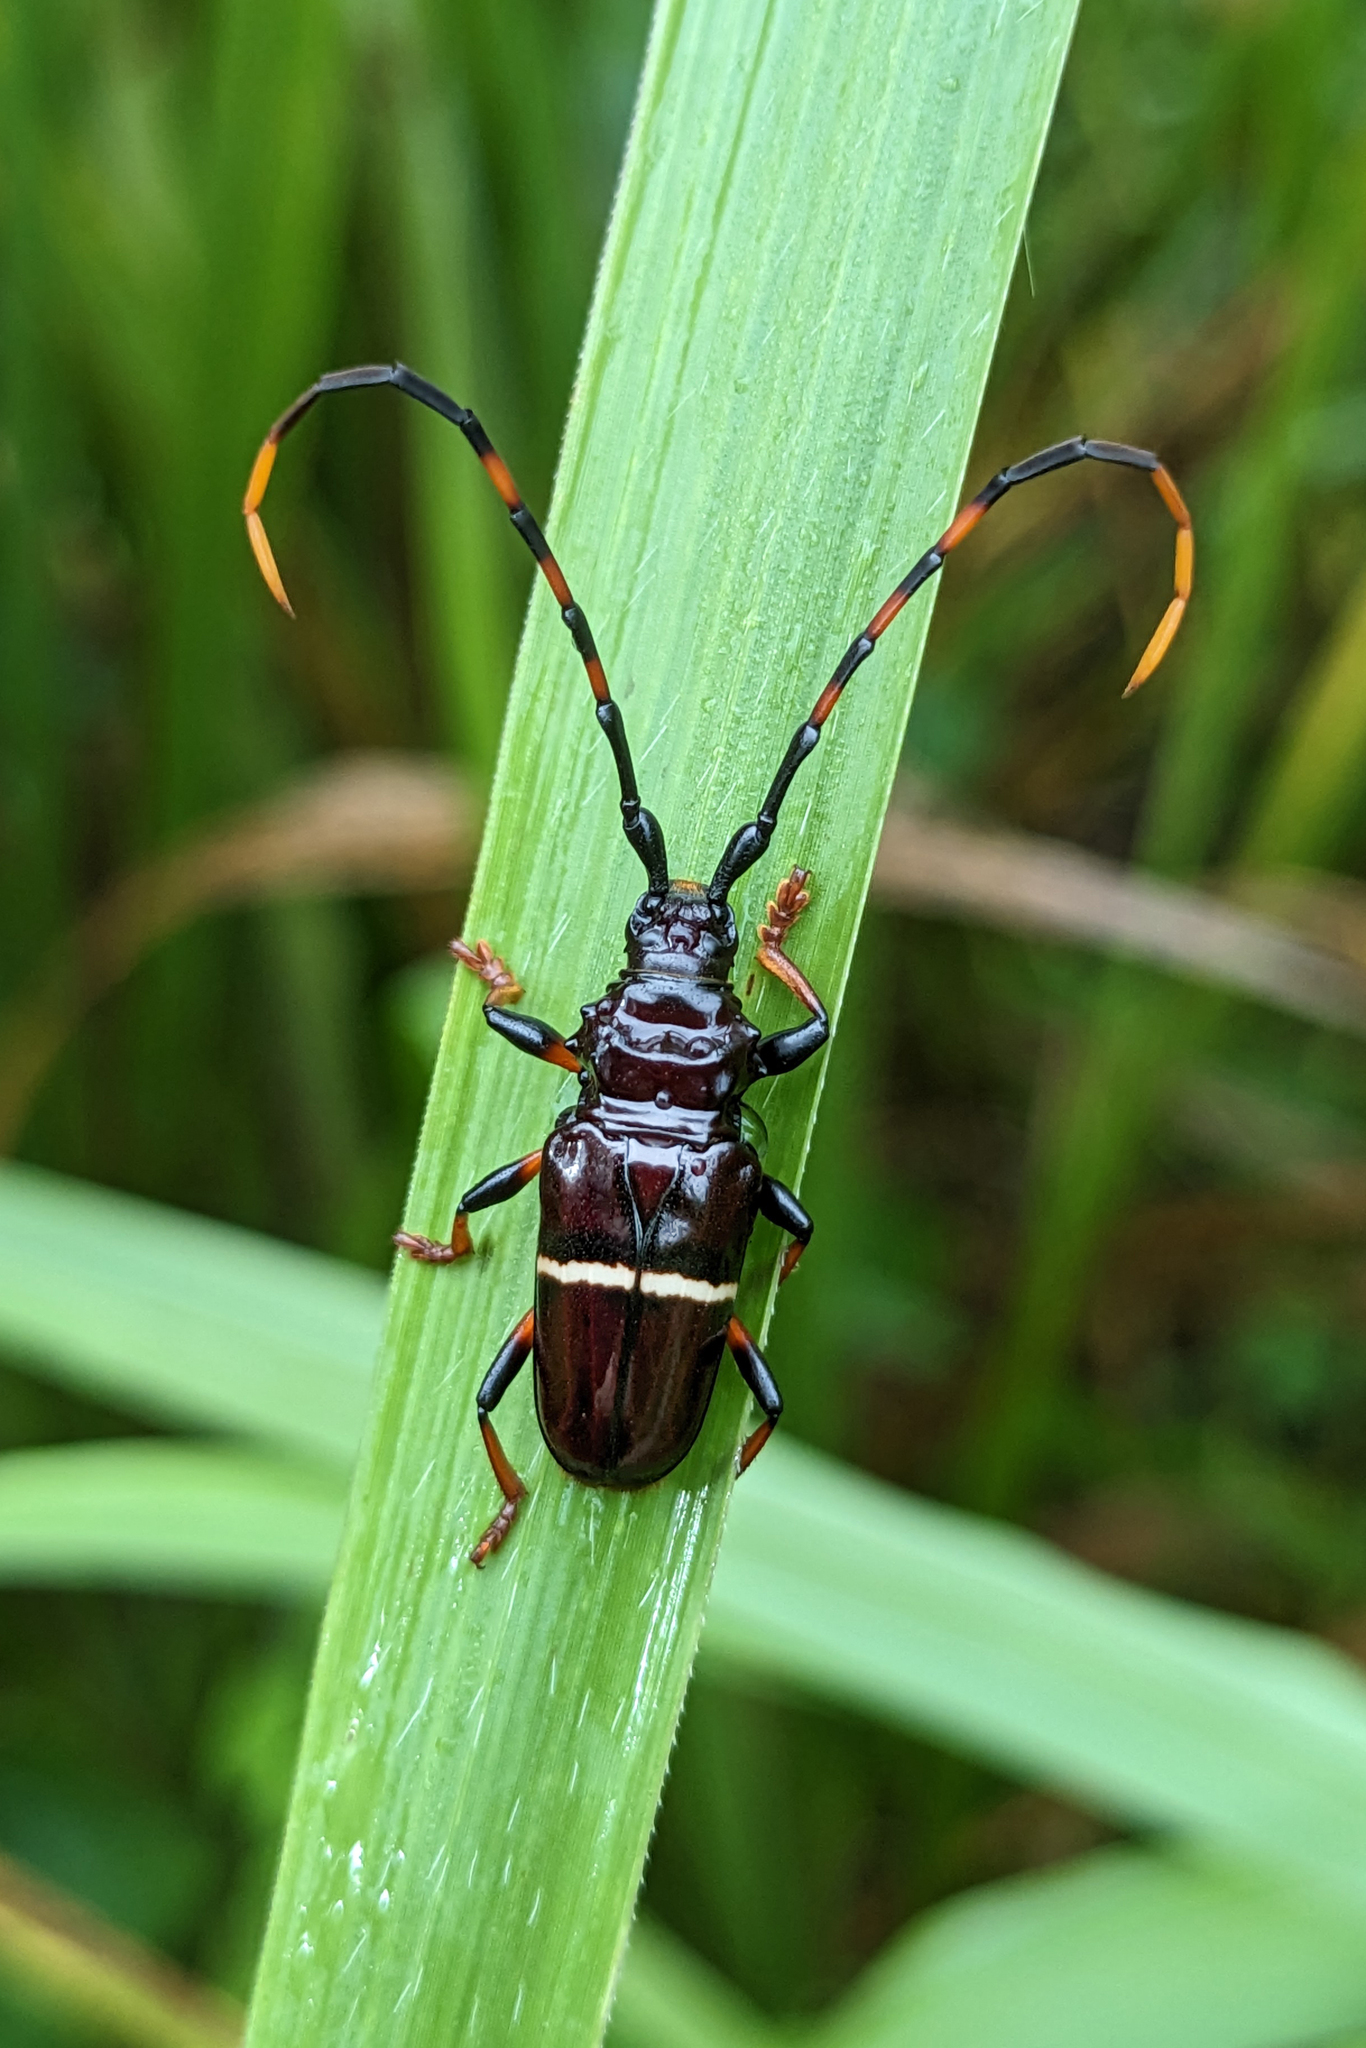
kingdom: Animalia
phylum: Arthropoda
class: Insecta
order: Coleoptera
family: Cerambycidae
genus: Trachyderes
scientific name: Trachyderes succinctus
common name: Mango longhorn
